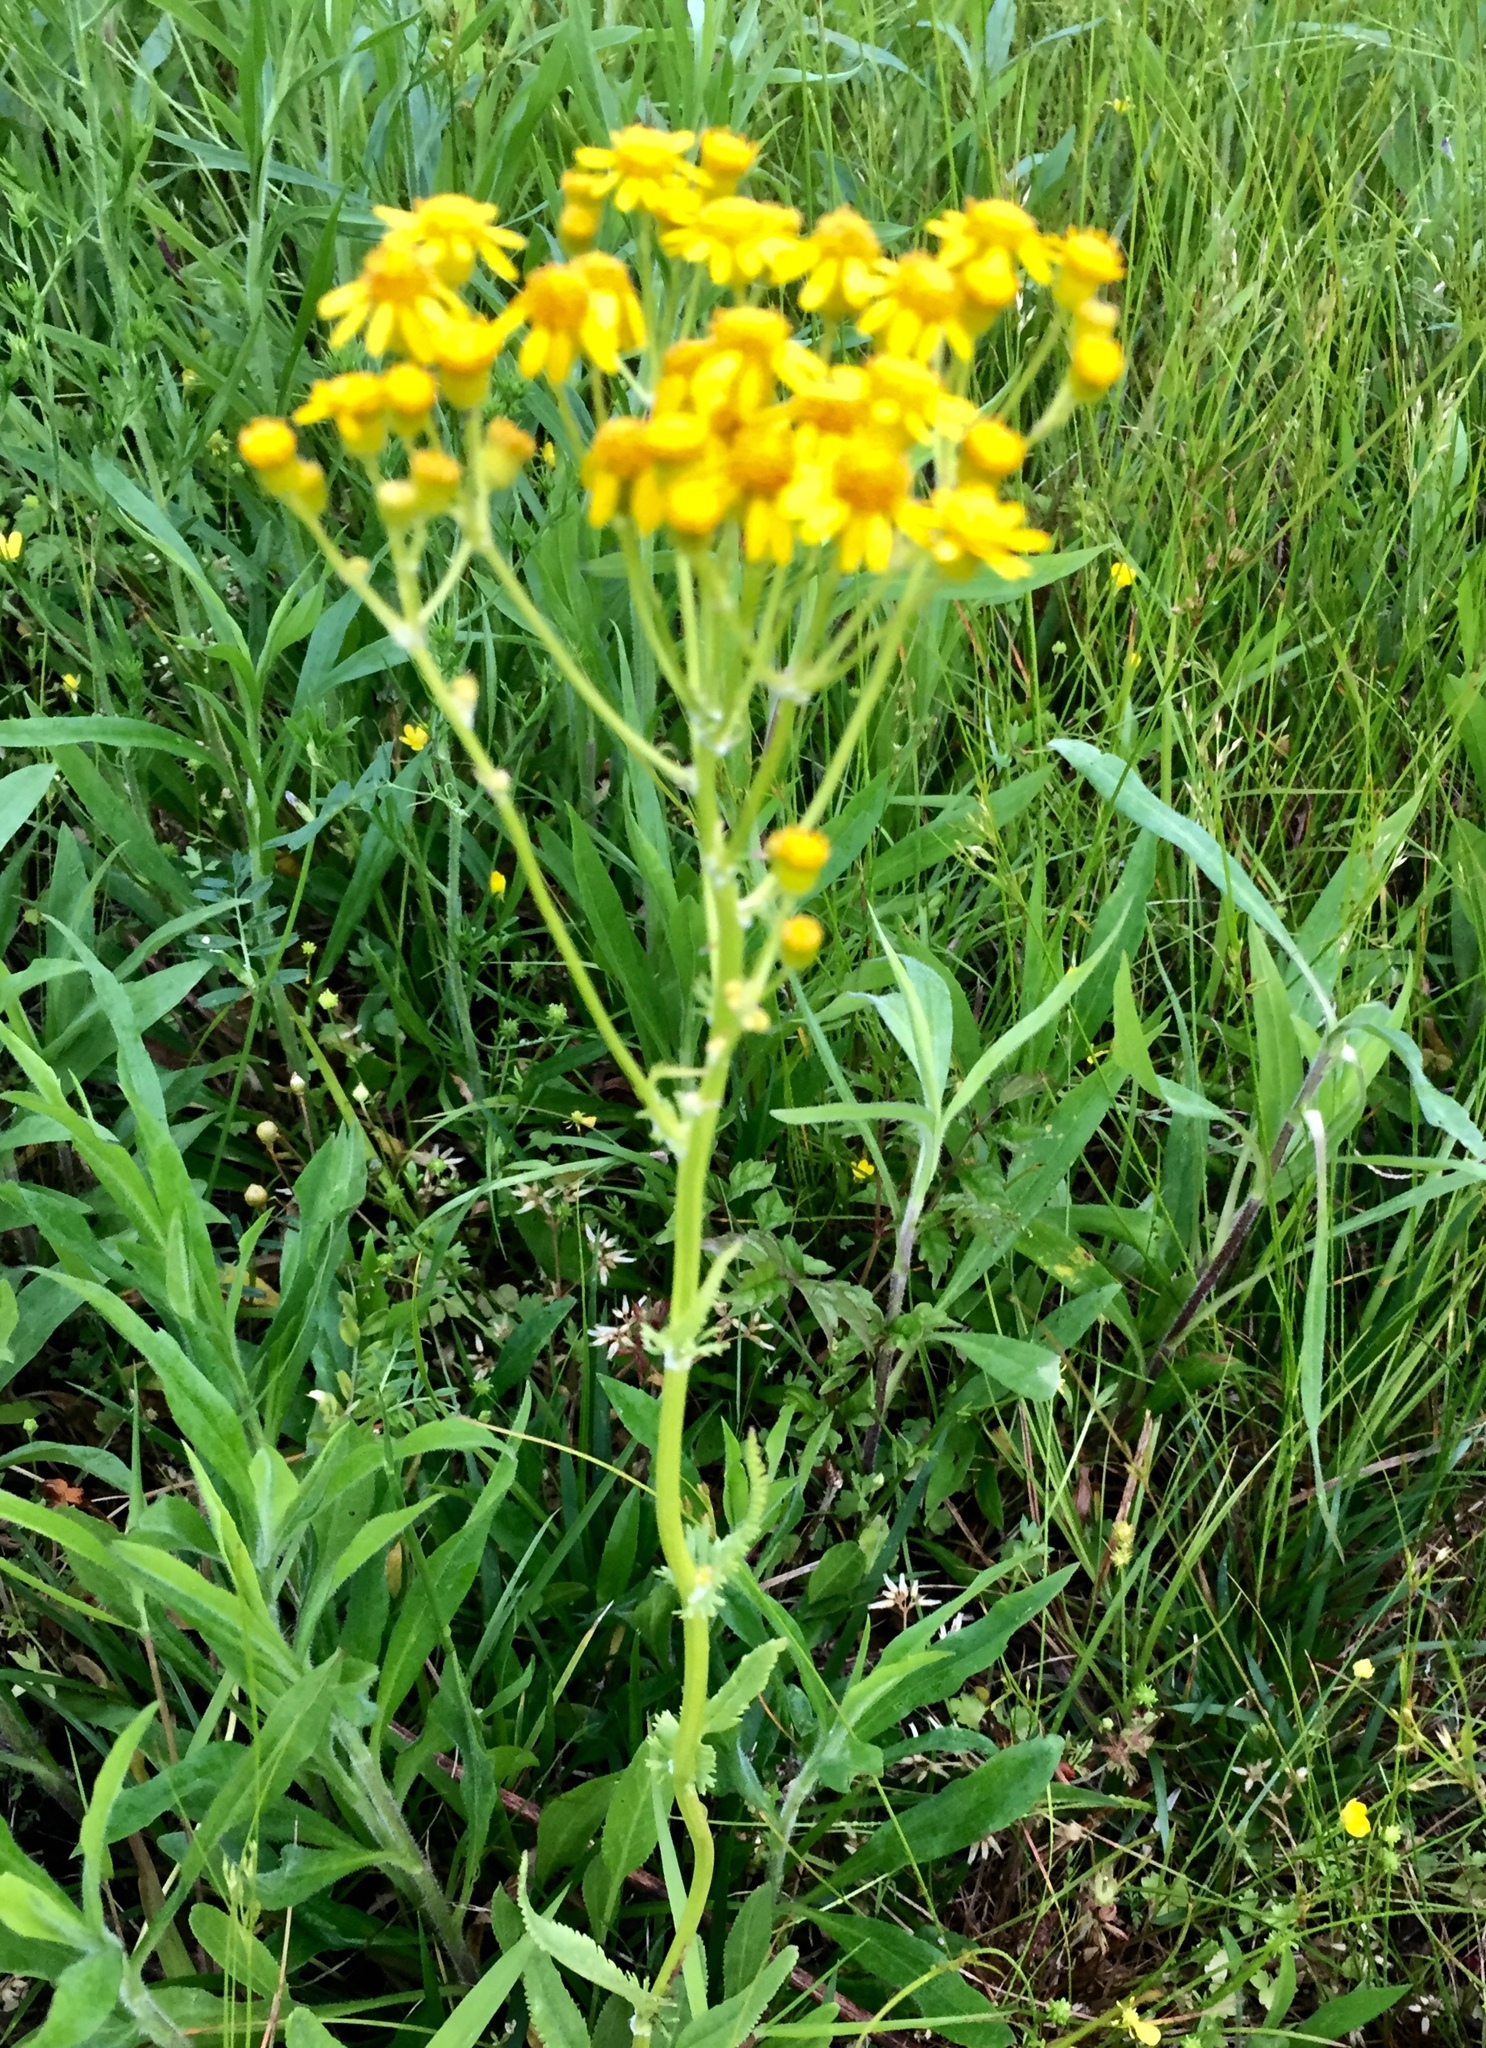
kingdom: Plantae
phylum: Tracheophyta
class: Magnoliopsida
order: Asterales
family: Asteraceae
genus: Packera
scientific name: Packera anonyma
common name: Small ragwort
